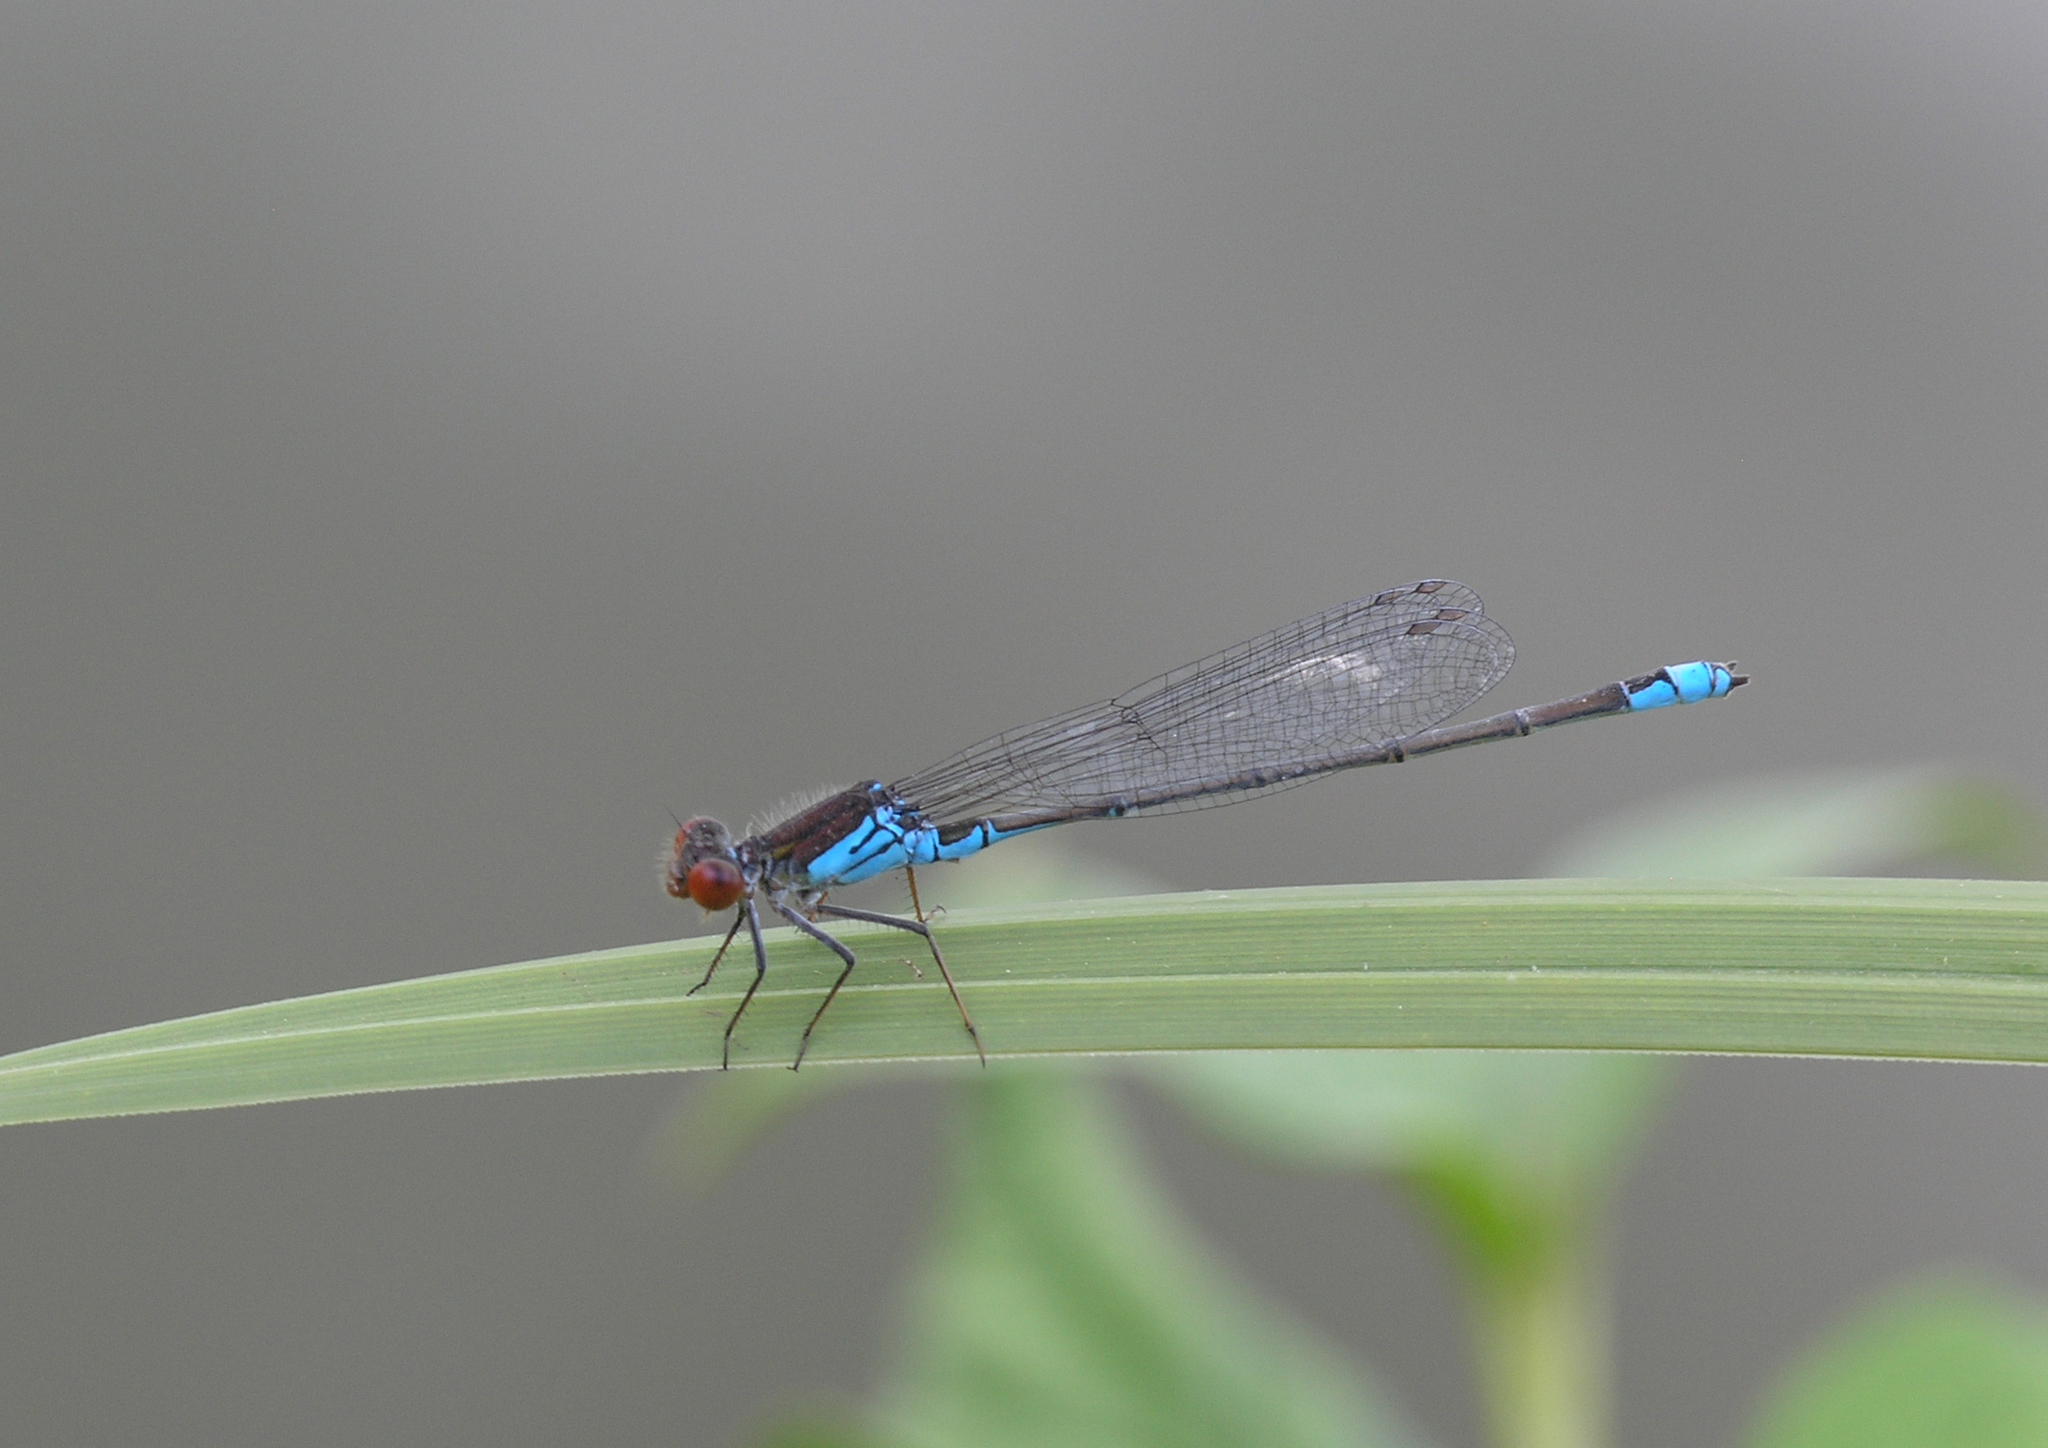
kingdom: Animalia
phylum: Arthropoda
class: Insecta
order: Odonata
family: Coenagrionidae
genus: Erythromma
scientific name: Erythromma viridulum
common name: Small red-eyed damselfly
